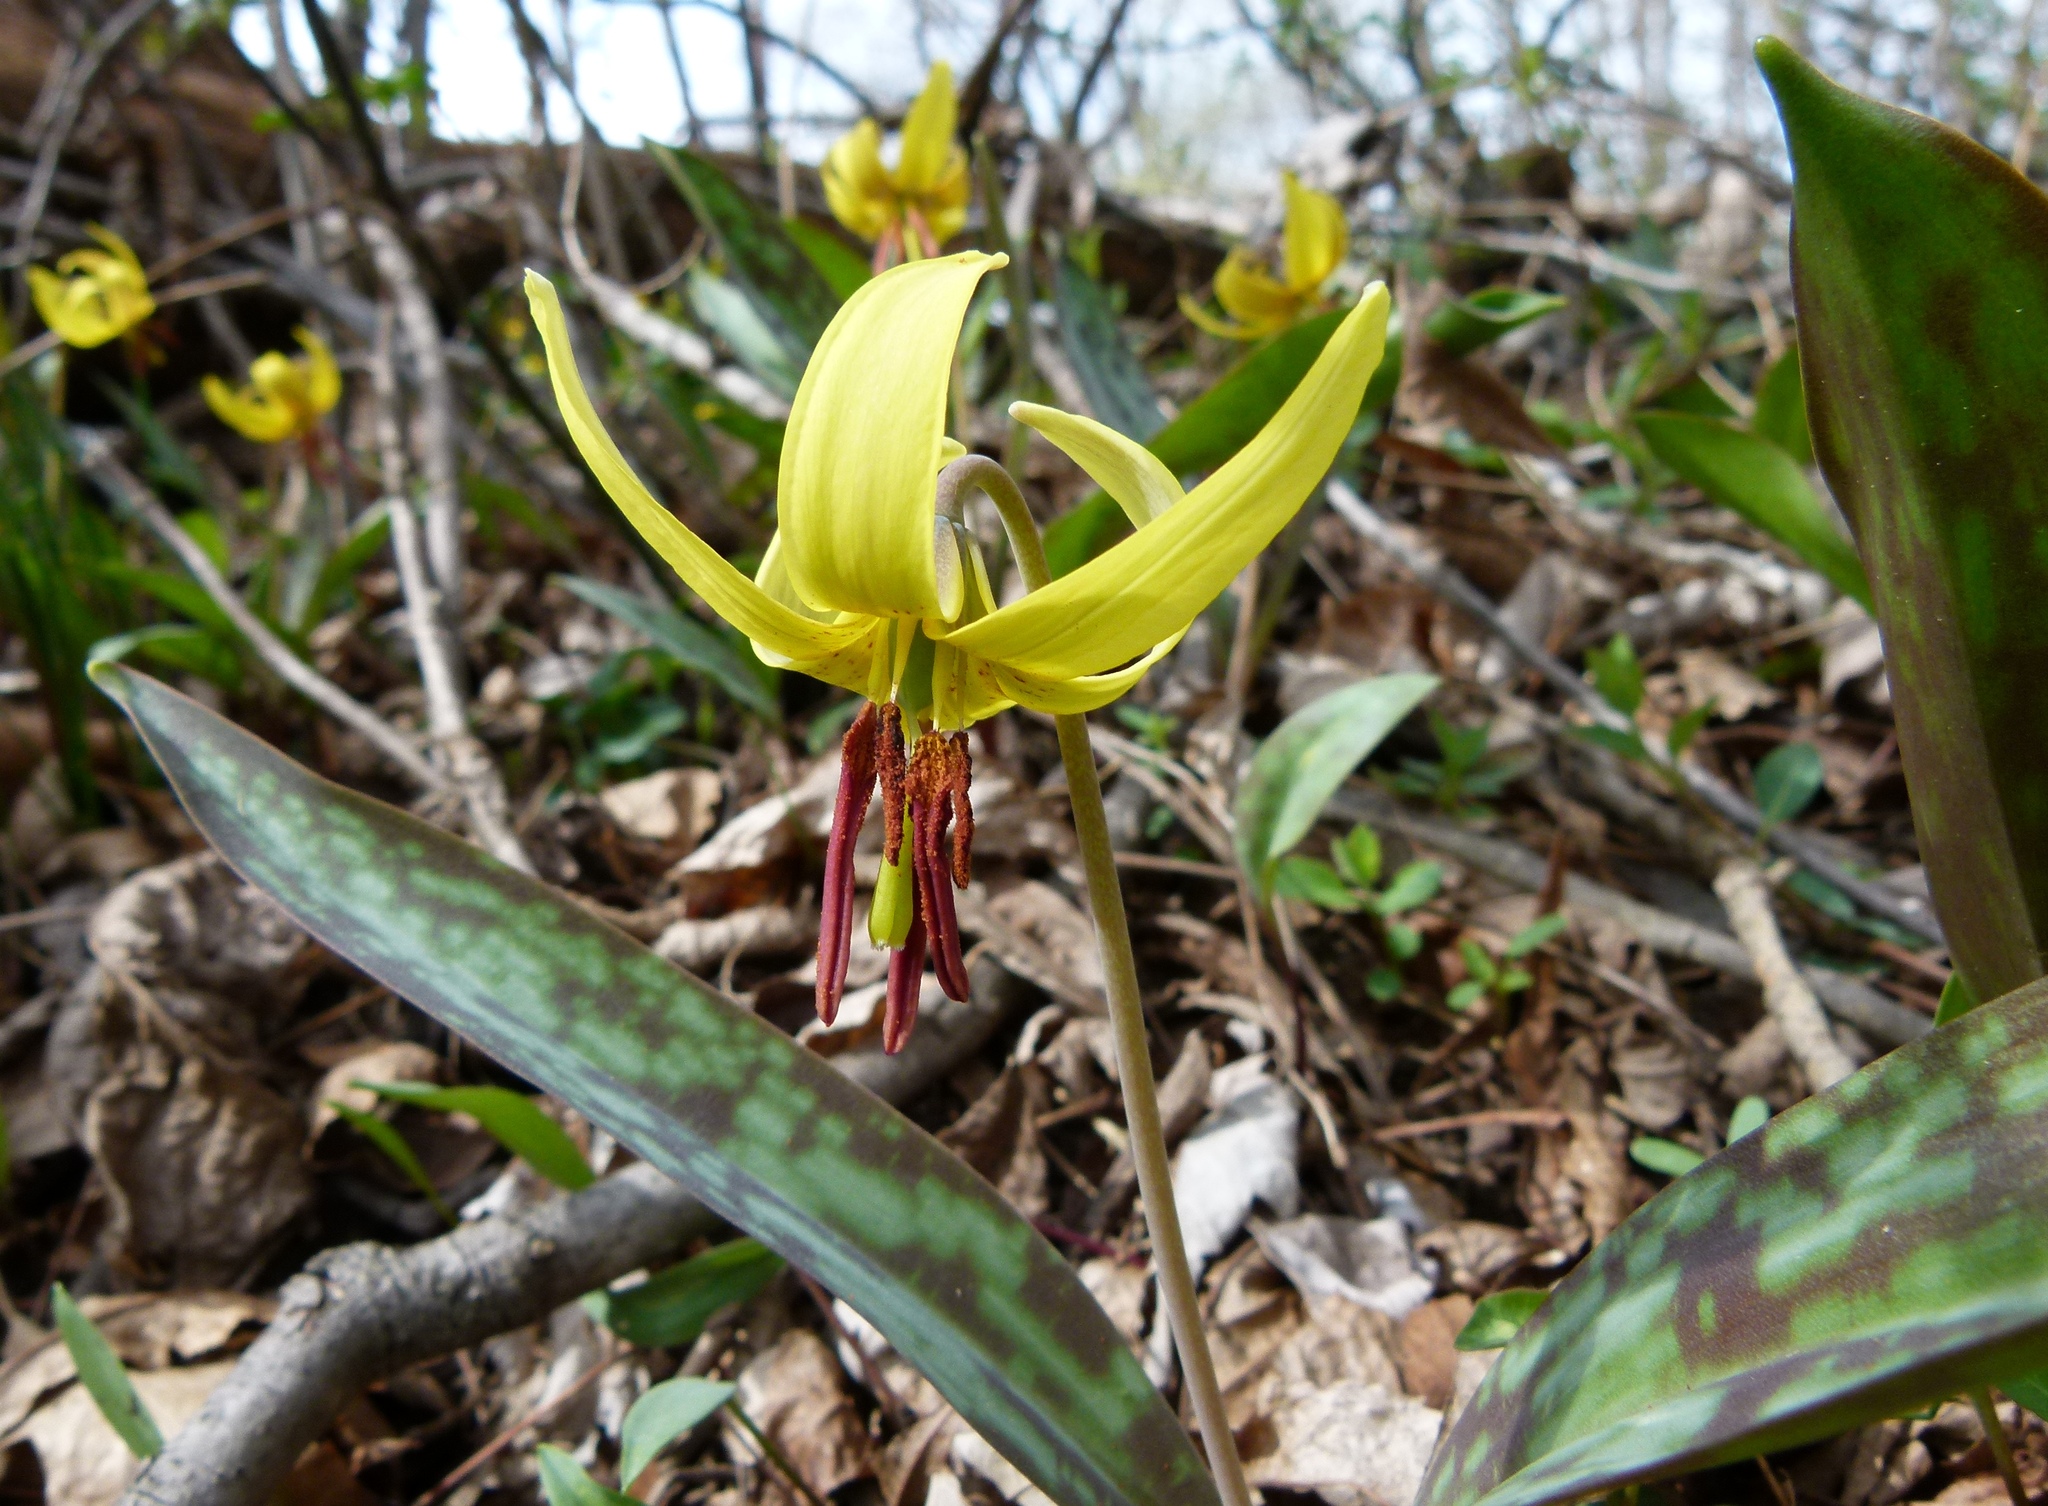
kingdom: Plantae
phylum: Tracheophyta
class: Liliopsida
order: Liliales
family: Liliaceae
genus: Erythronium
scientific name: Erythronium americanum
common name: Yellow adder's-tongue
